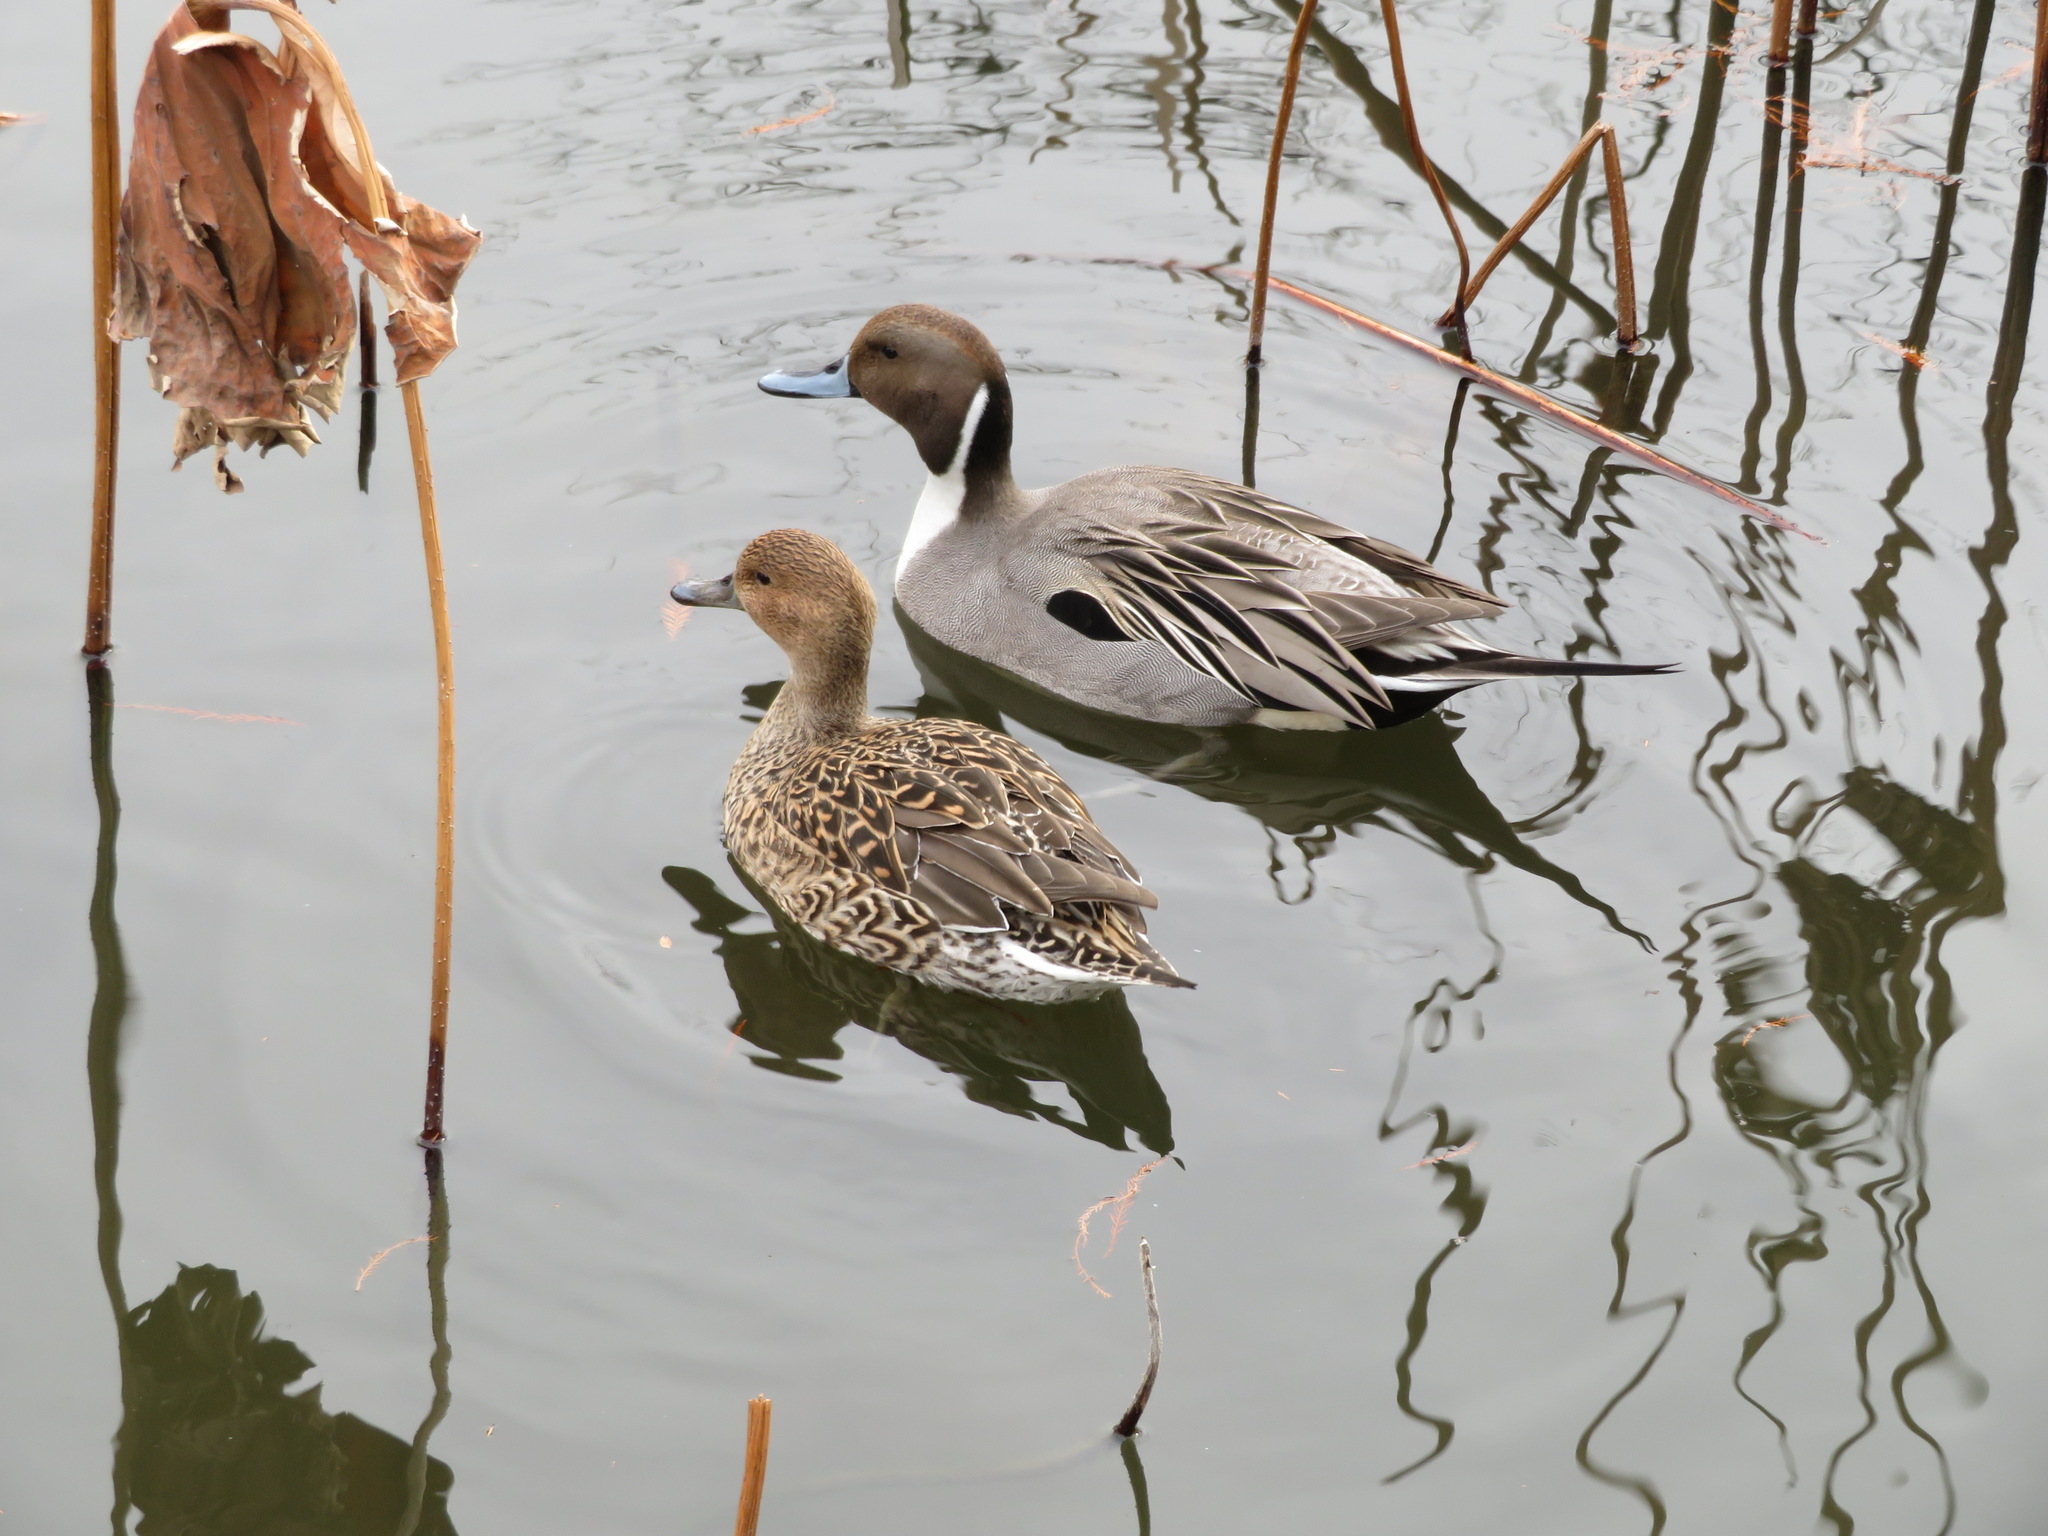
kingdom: Animalia
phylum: Chordata
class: Aves
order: Anseriformes
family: Anatidae
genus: Anas
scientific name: Anas acuta
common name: Northern pintail
